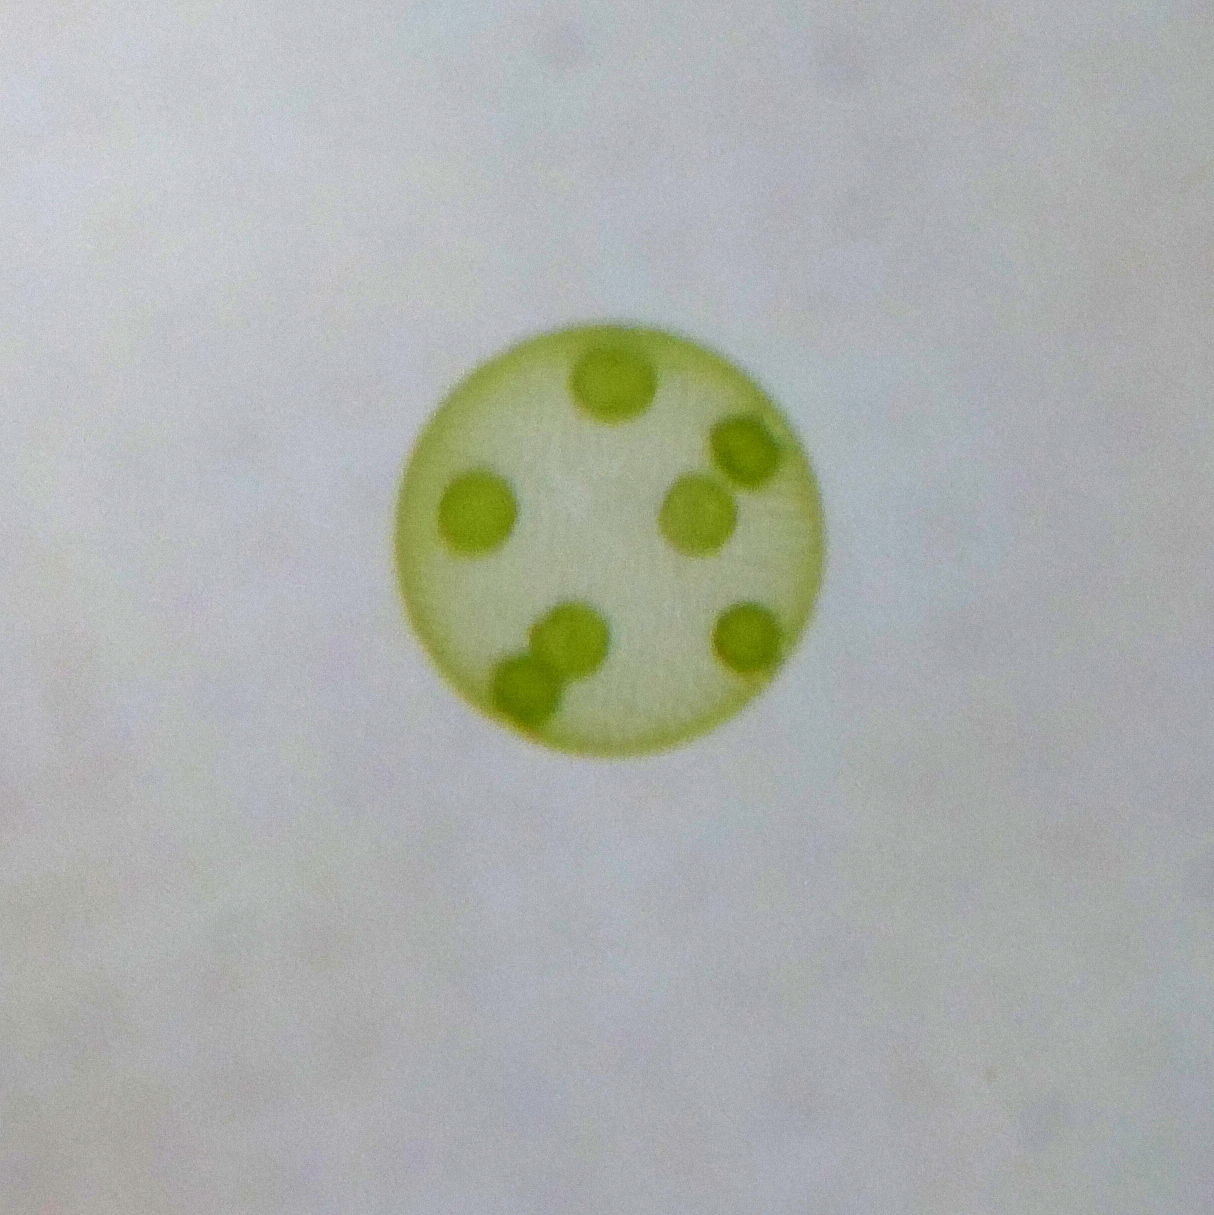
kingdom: Plantae
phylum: Chlorophyta
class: Chlorophyceae
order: Volvocales
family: Volvocaceae
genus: Volvox
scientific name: Volvox
